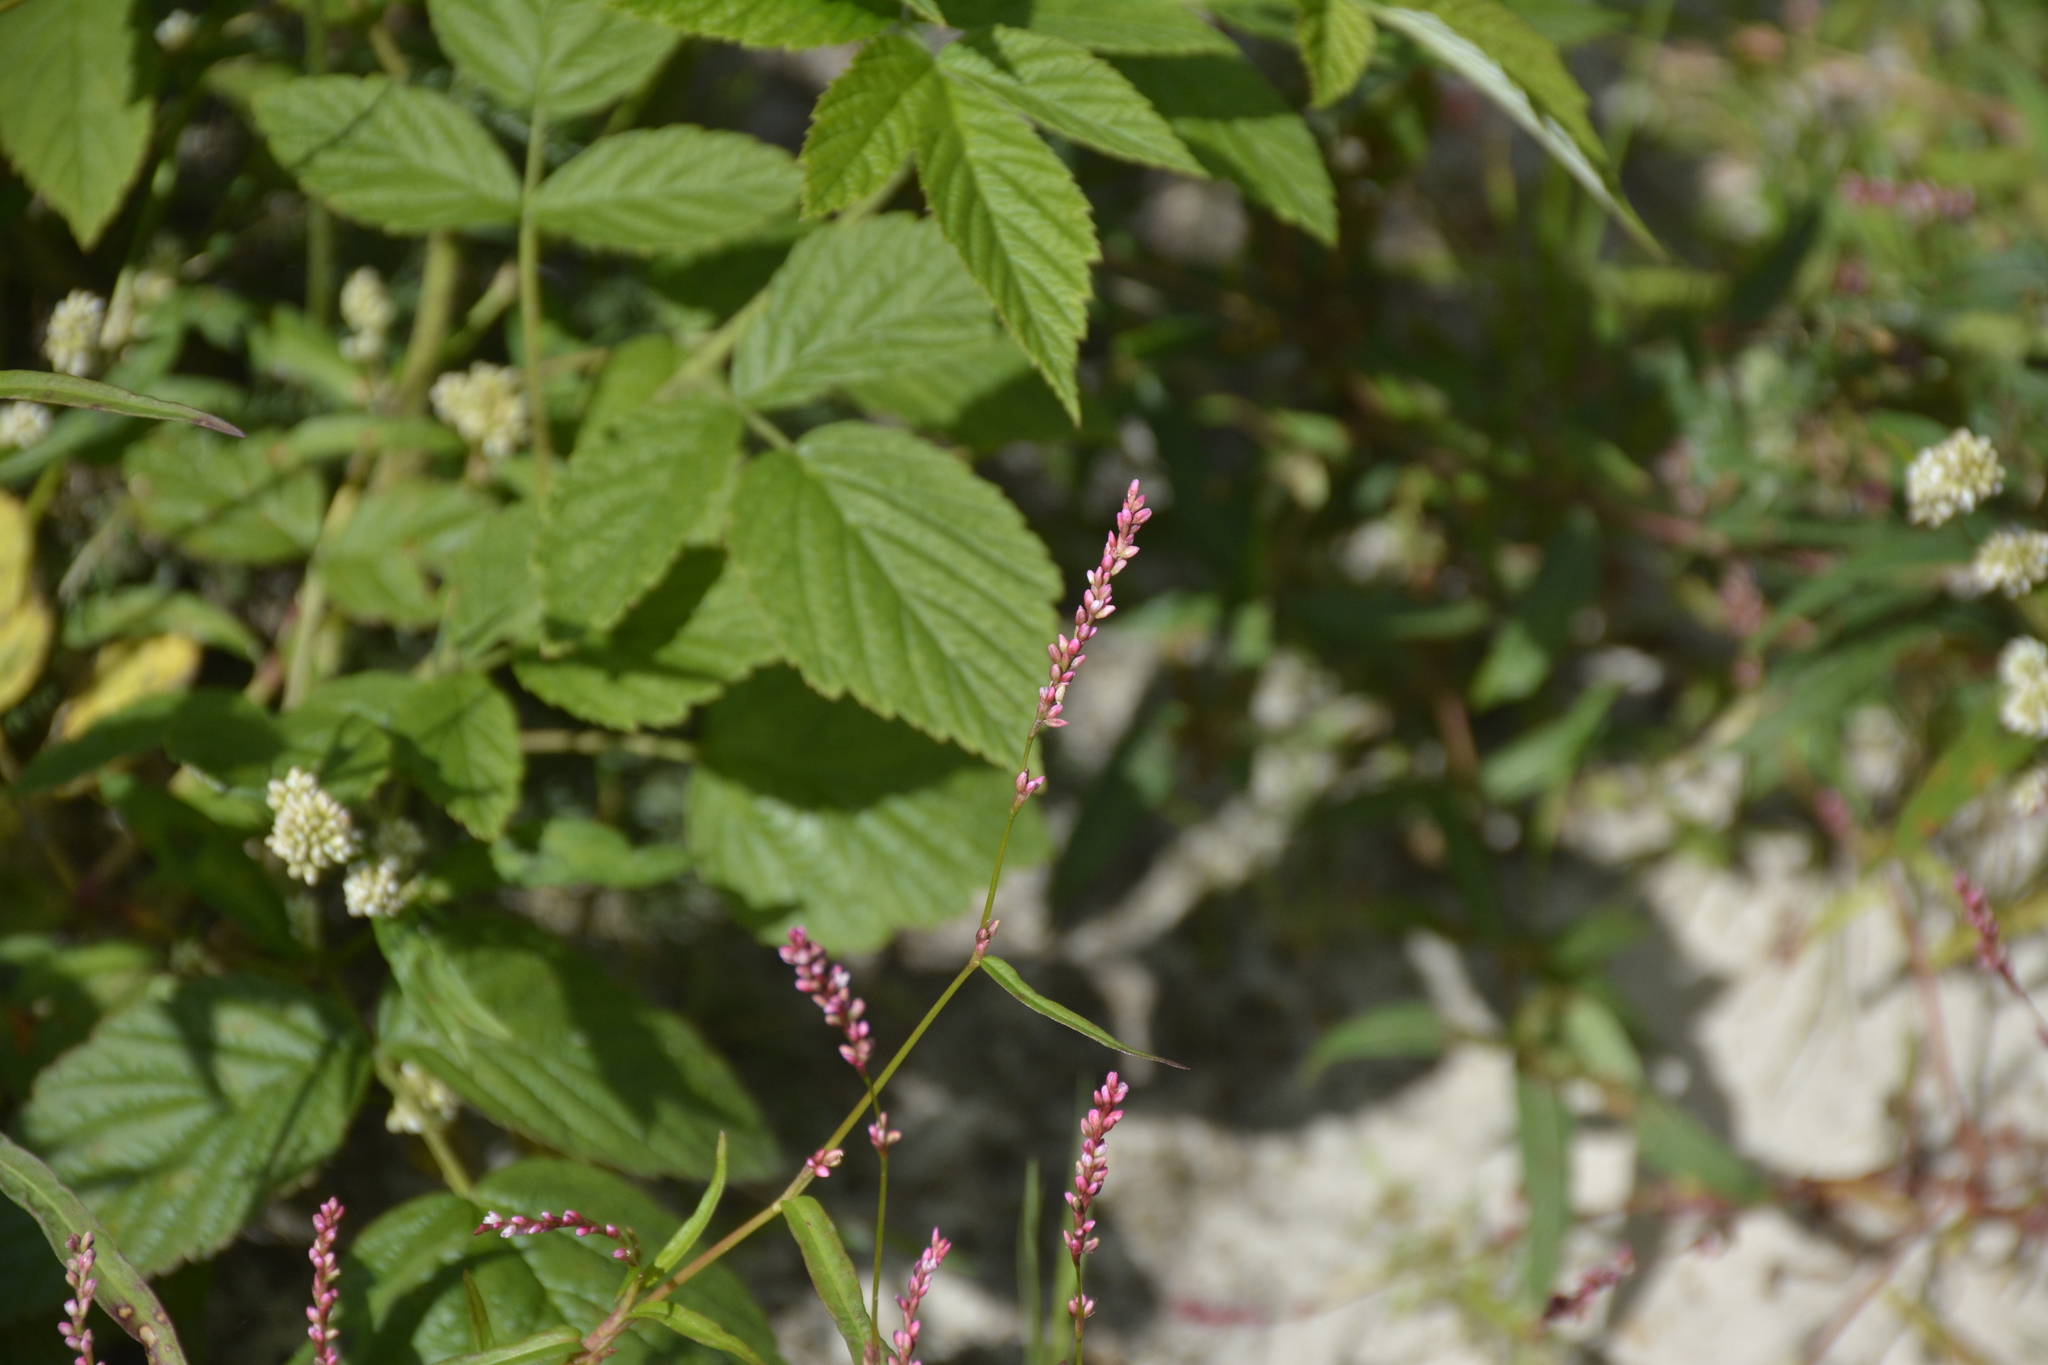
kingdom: Plantae
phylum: Tracheophyta
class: Magnoliopsida
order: Caryophyllales
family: Polygonaceae
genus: Persicaria
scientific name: Persicaria minor
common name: Small water-pepper
